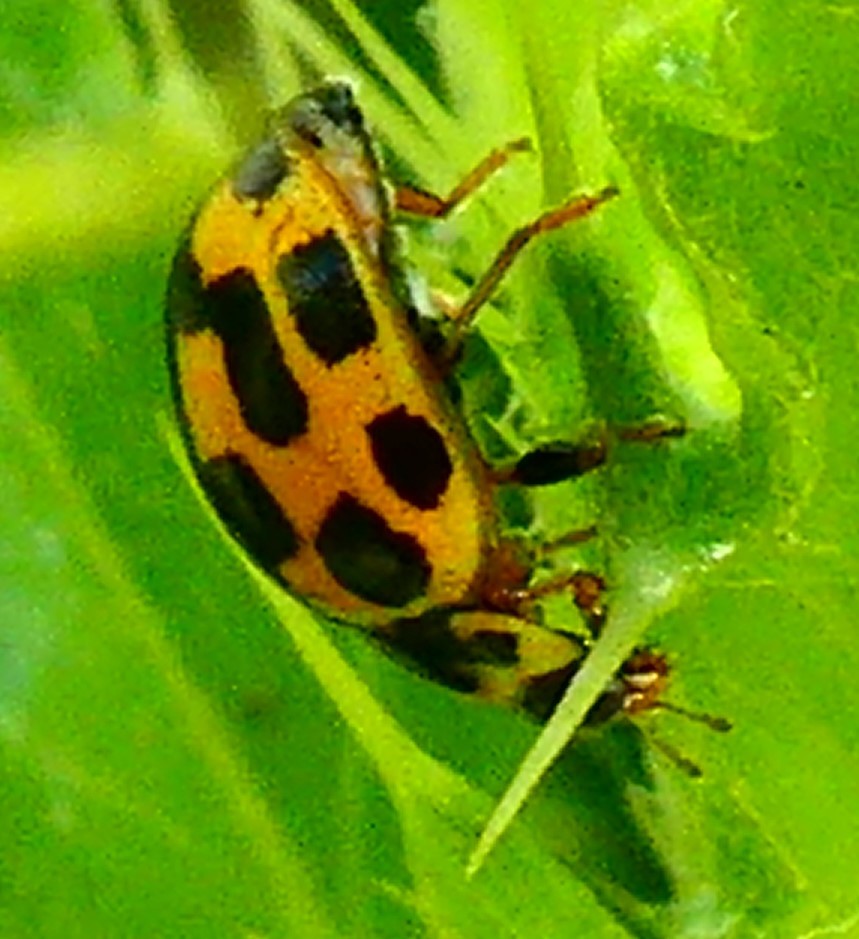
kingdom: Animalia
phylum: Arthropoda
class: Insecta
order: Coleoptera
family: Coccinellidae
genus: Propylaea
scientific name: Propylaea quatuordecimpunctata
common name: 14-spotted ladybird beetle
